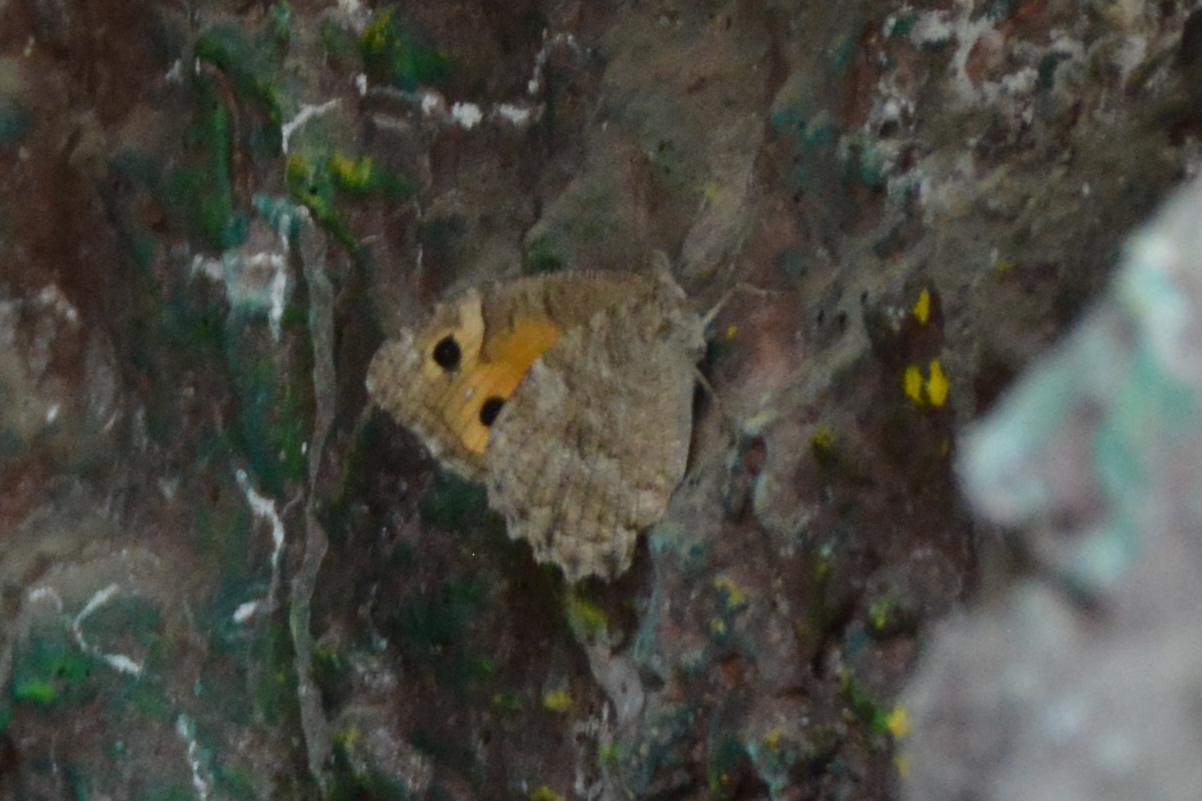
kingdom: Animalia
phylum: Arthropoda
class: Insecta
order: Lepidoptera
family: Nymphalidae
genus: Pseudochazara
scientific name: Pseudochazara thelephassa
